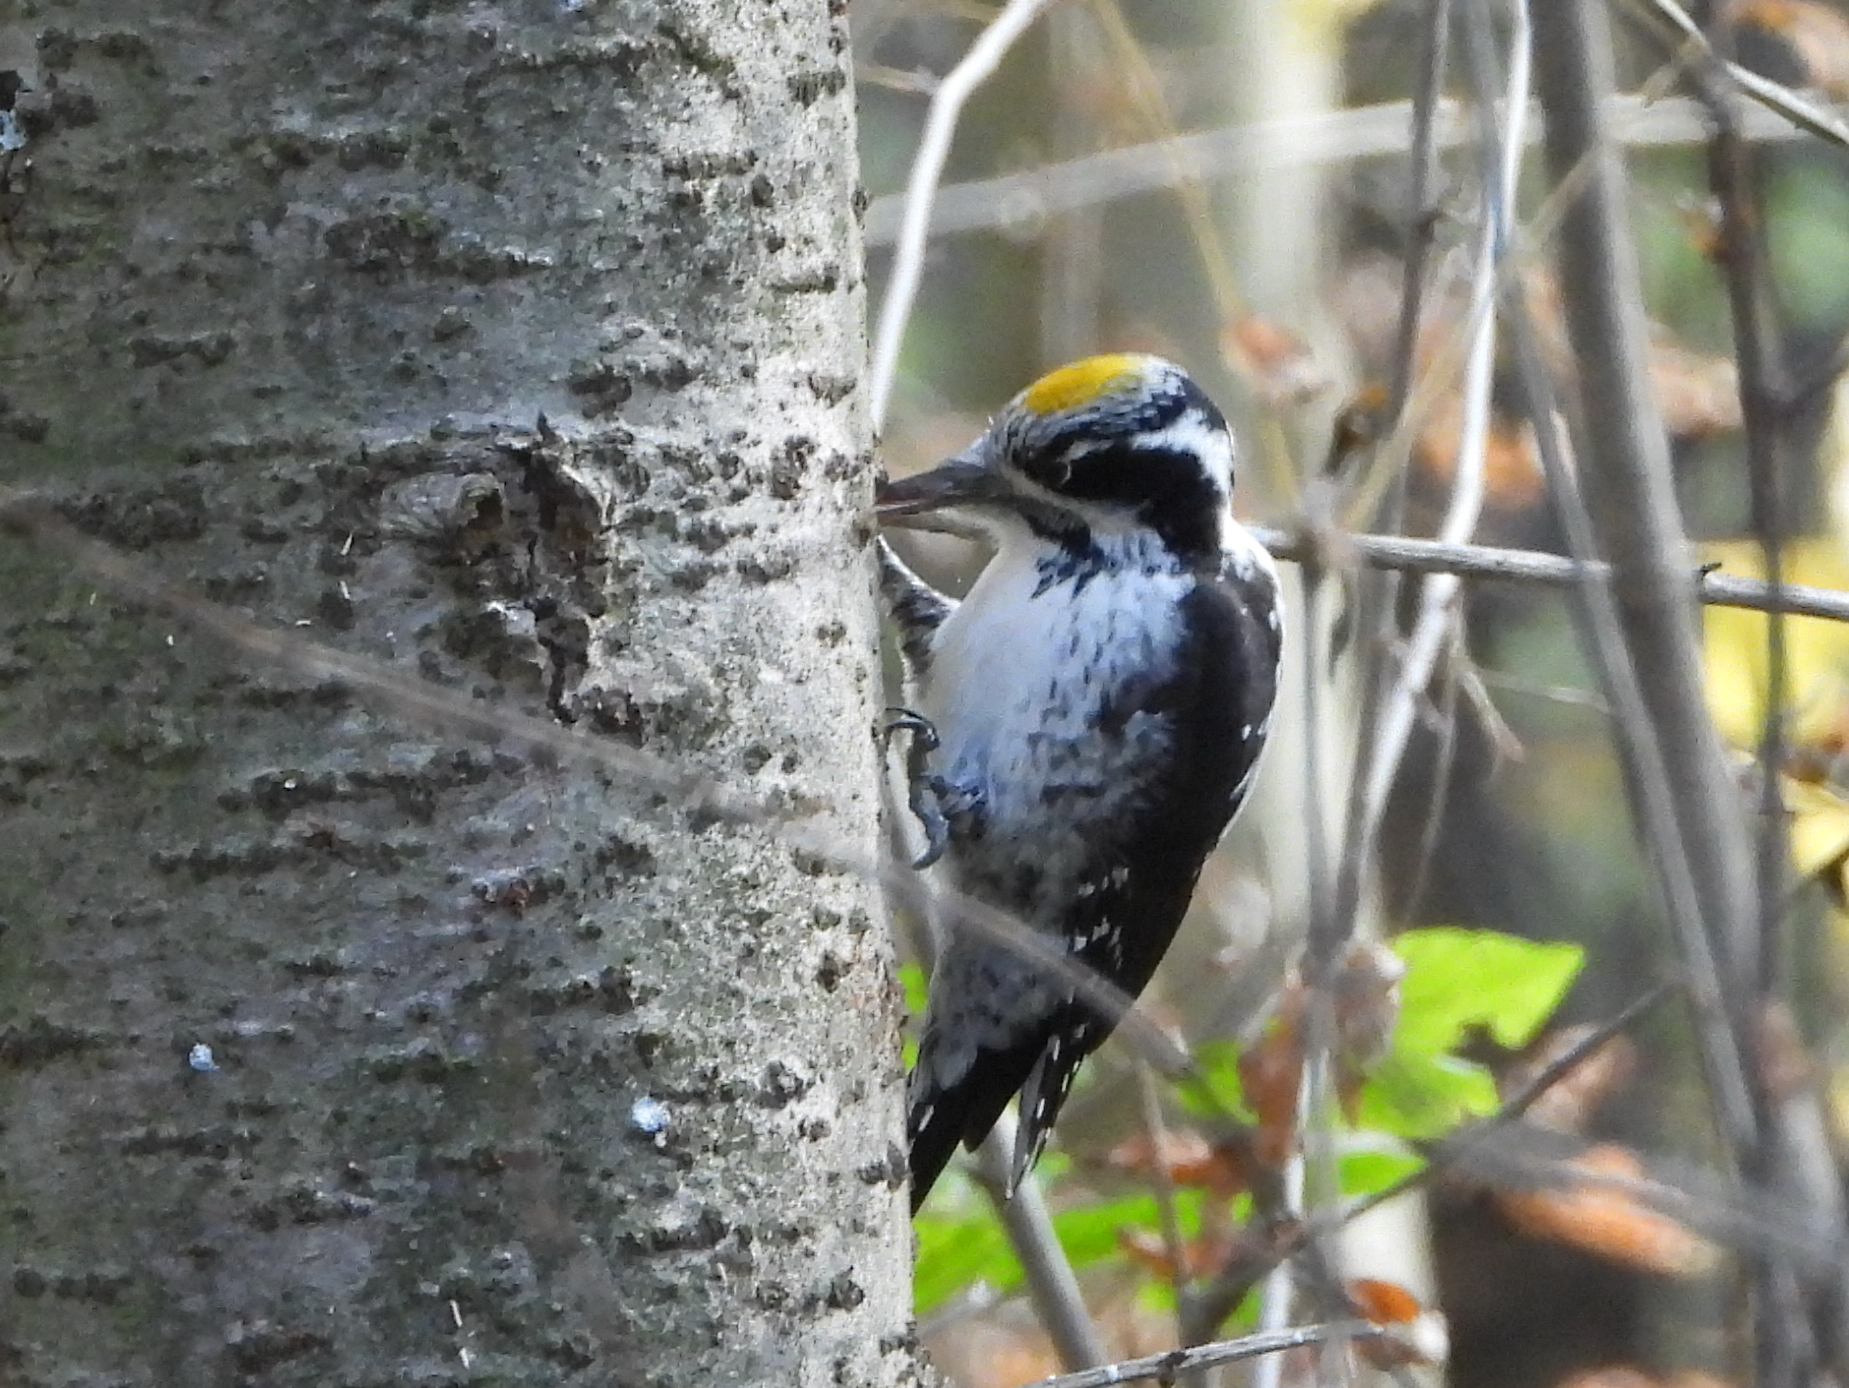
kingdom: Animalia
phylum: Chordata
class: Aves
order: Piciformes
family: Picidae
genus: Picoides
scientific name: Picoides tridactylus
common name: Eurasian three-toed woodpecker
